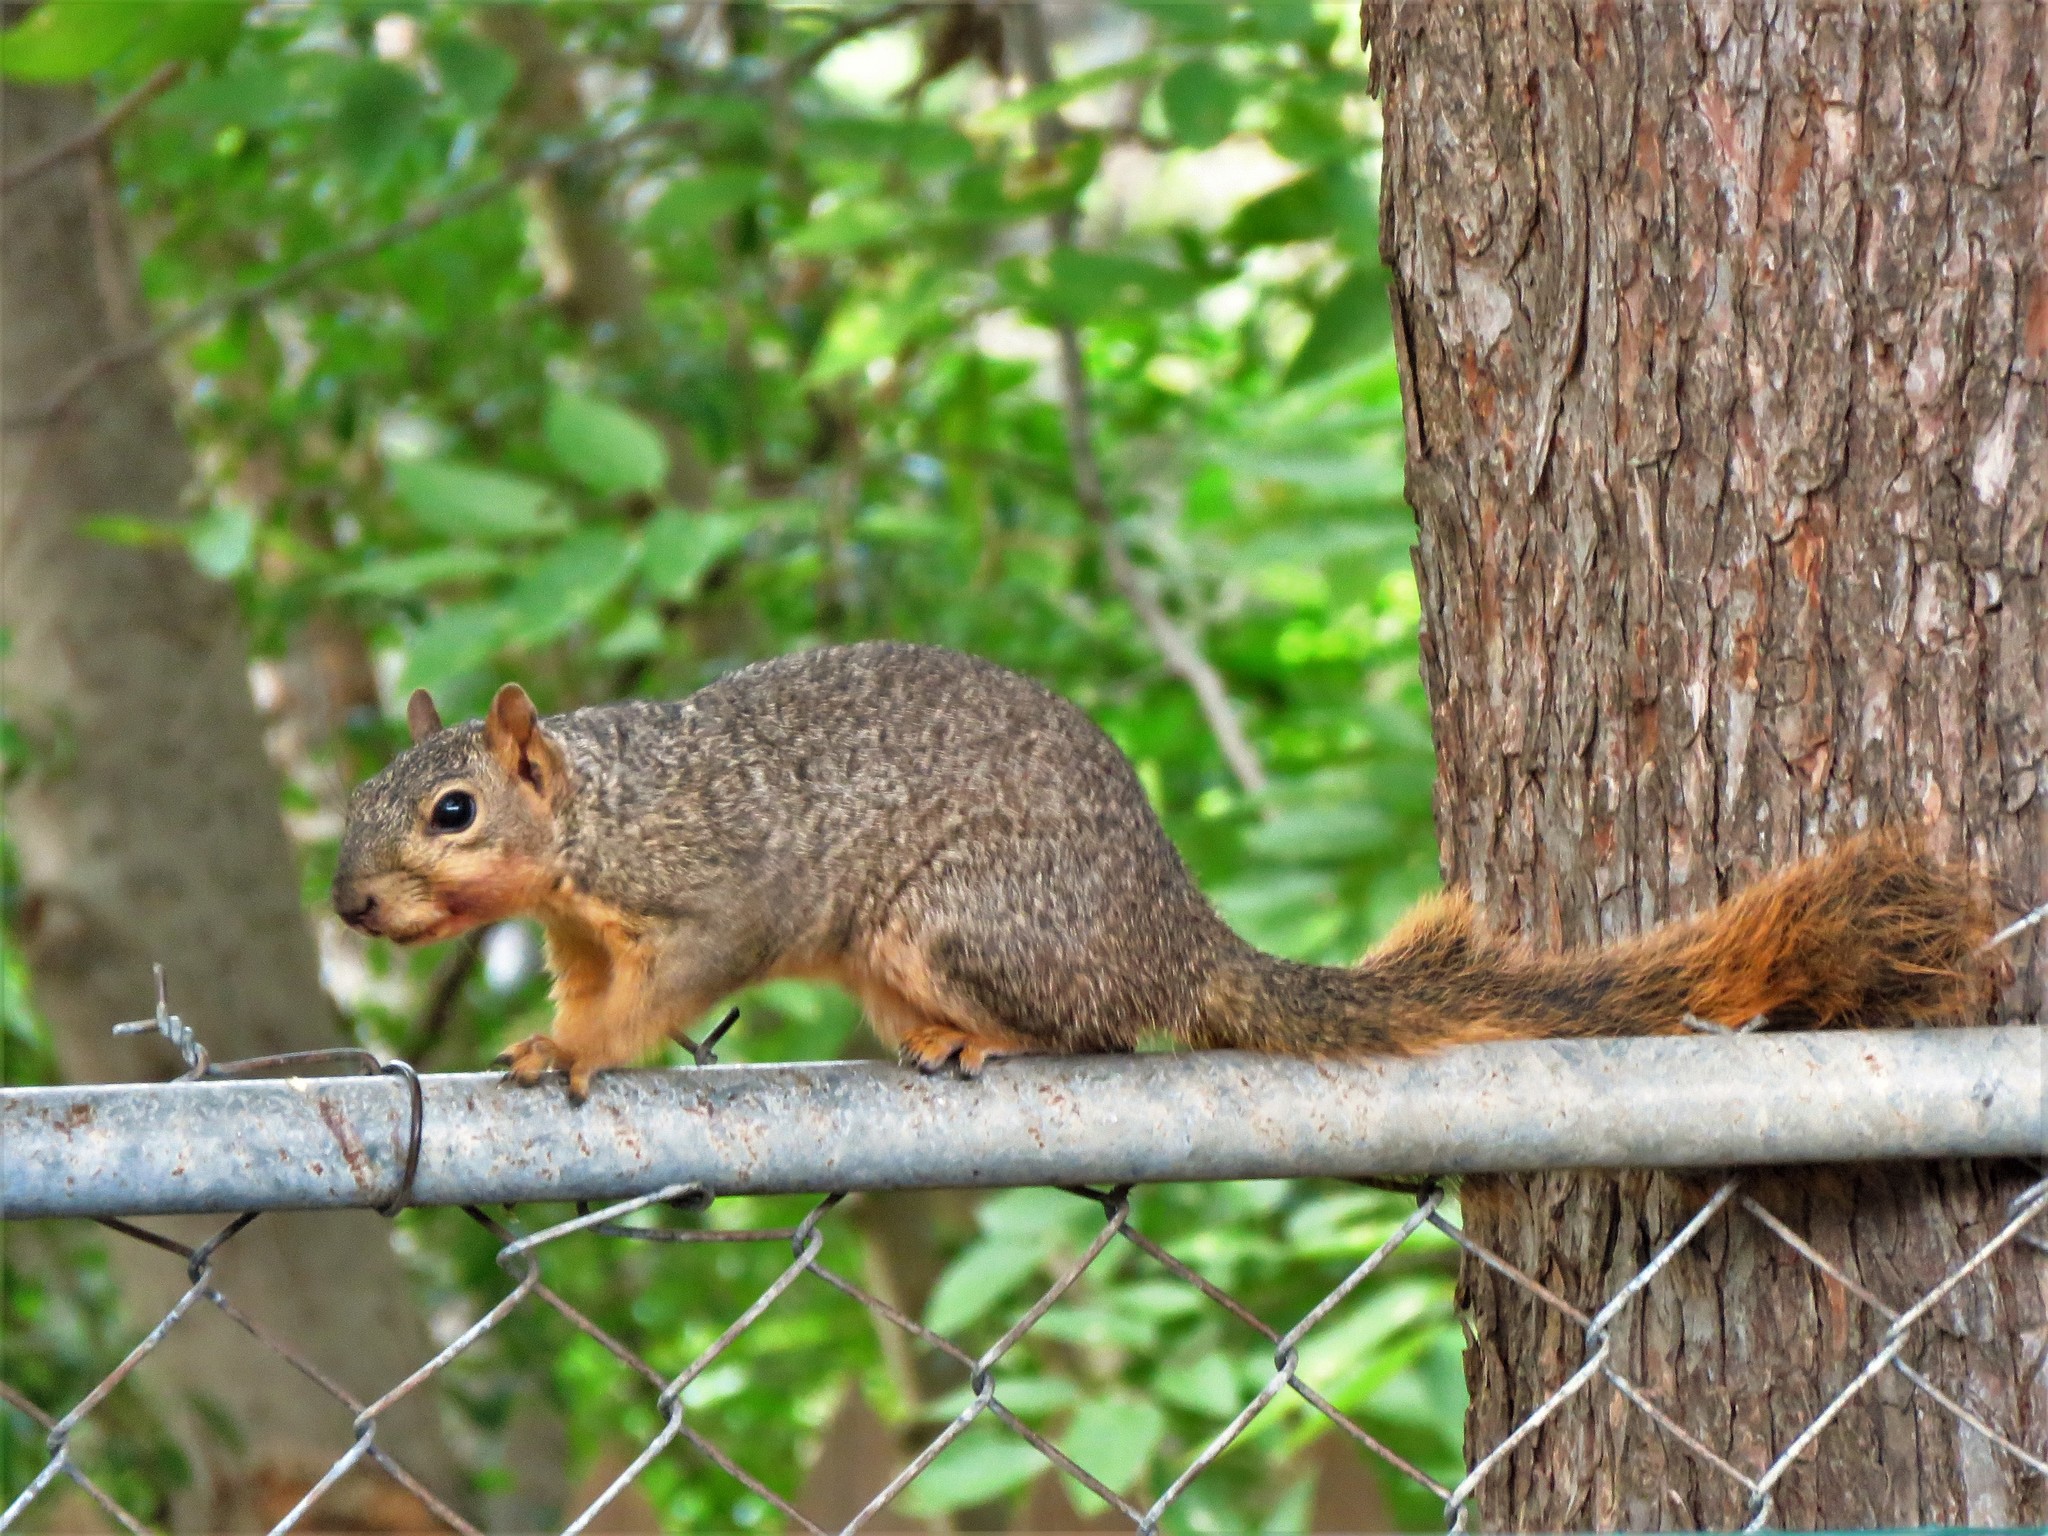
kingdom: Animalia
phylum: Chordata
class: Mammalia
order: Rodentia
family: Sciuridae
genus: Sciurus
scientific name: Sciurus niger
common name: Fox squirrel
